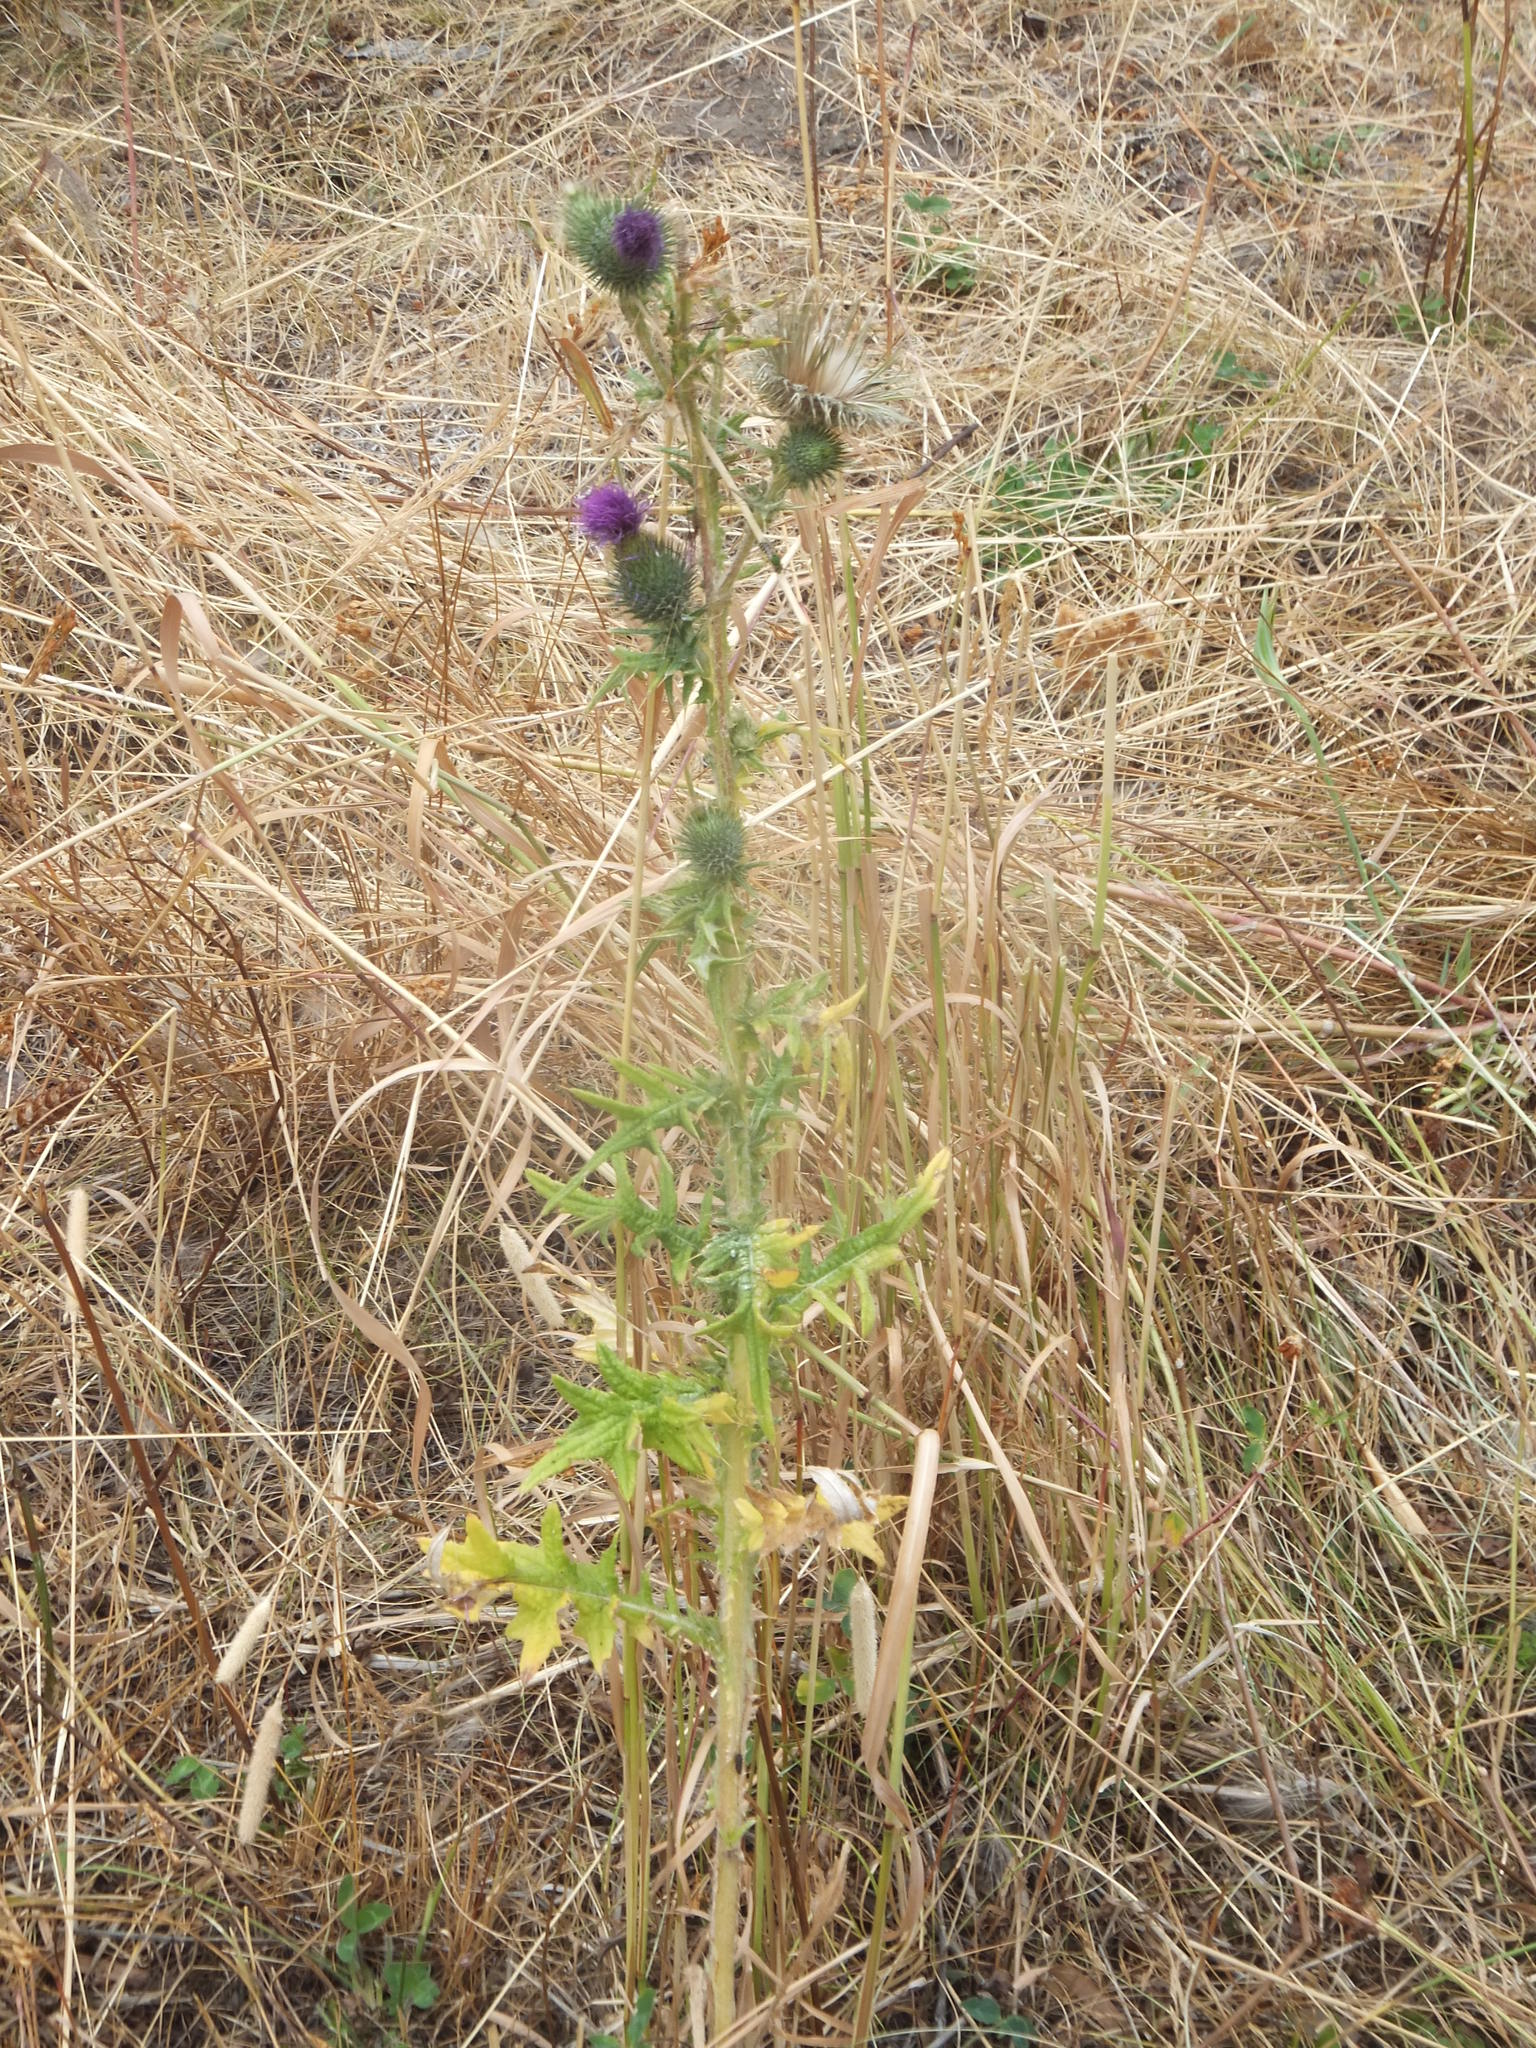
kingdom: Plantae
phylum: Tracheophyta
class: Magnoliopsida
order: Asterales
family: Asteraceae
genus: Cirsium
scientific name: Cirsium vulgare
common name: Bull thistle
